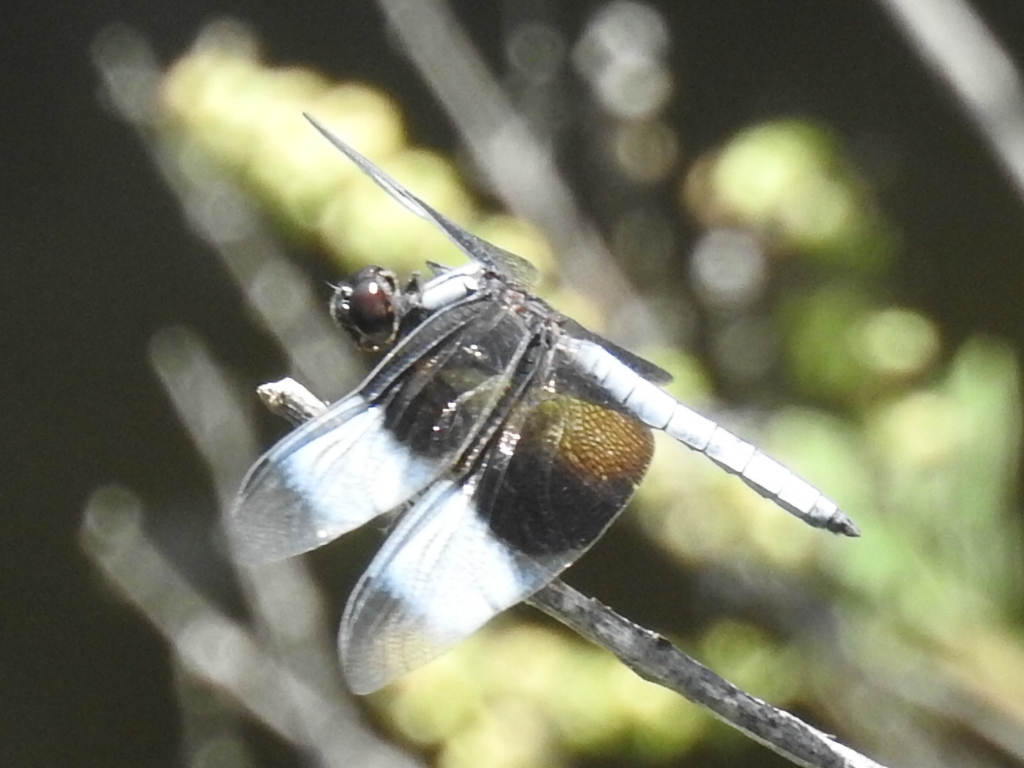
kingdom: Animalia
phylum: Arthropoda
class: Insecta
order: Odonata
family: Libellulidae
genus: Libellula
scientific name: Libellula luctuosa
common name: Widow skimmer
